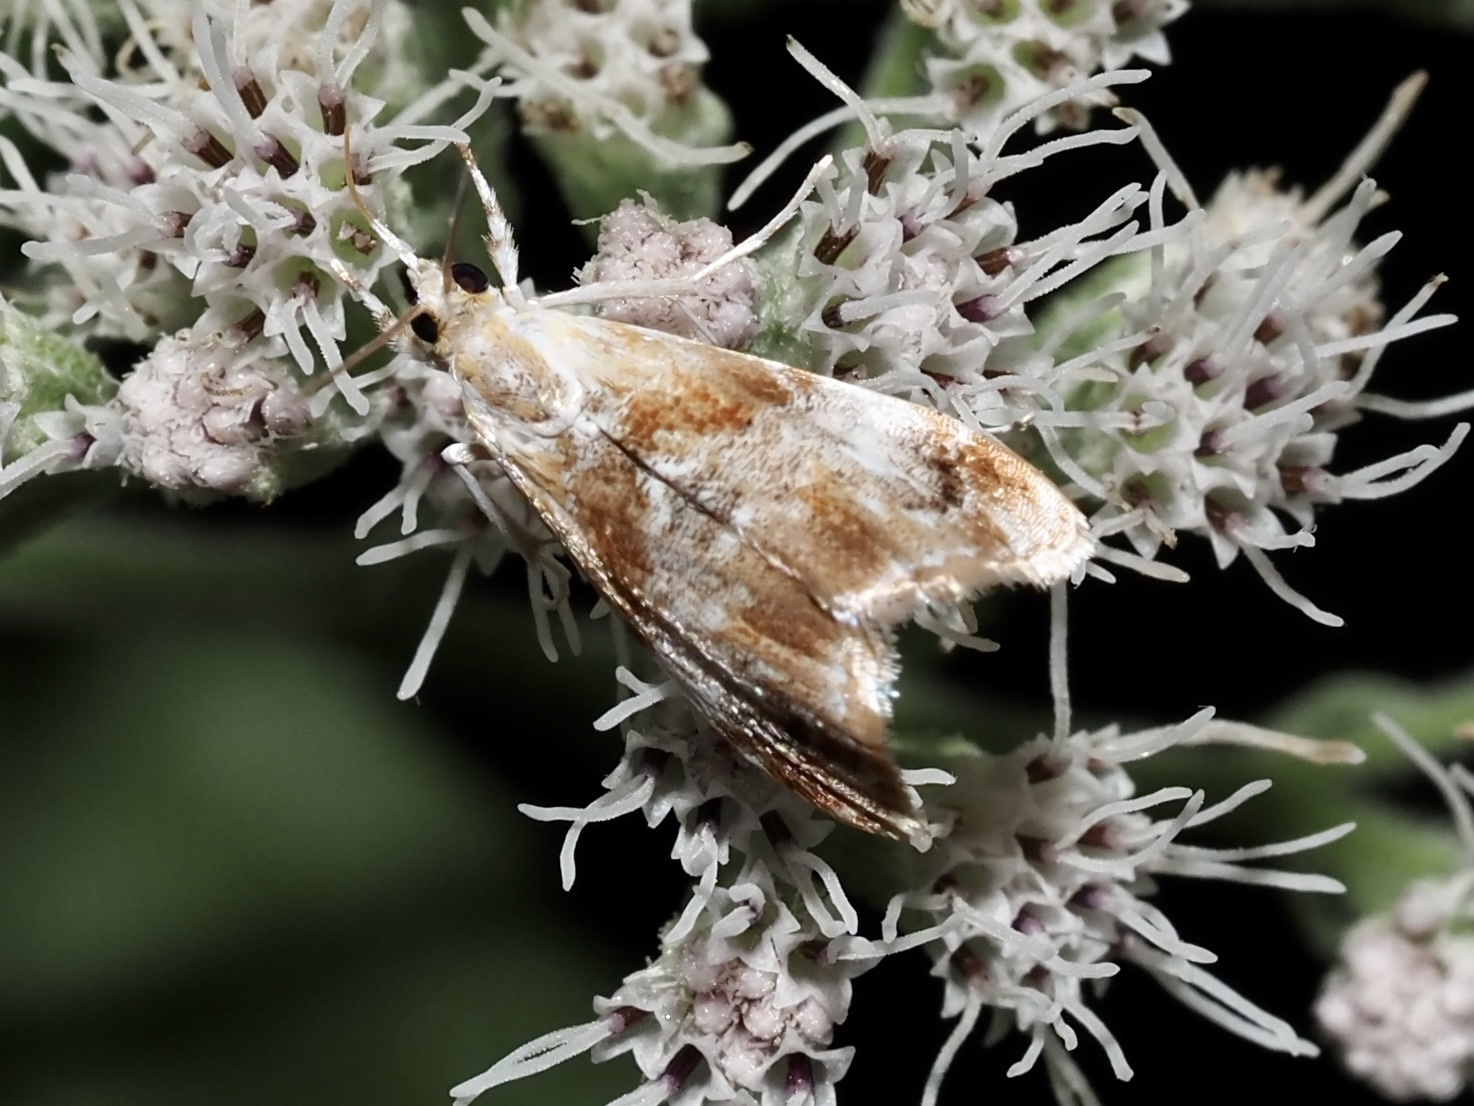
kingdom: Animalia
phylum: Arthropoda
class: Insecta
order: Lepidoptera
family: Crambidae
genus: Dicymolomia
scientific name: Dicymolomia julianalis
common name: Julia's dicymolomia moth
